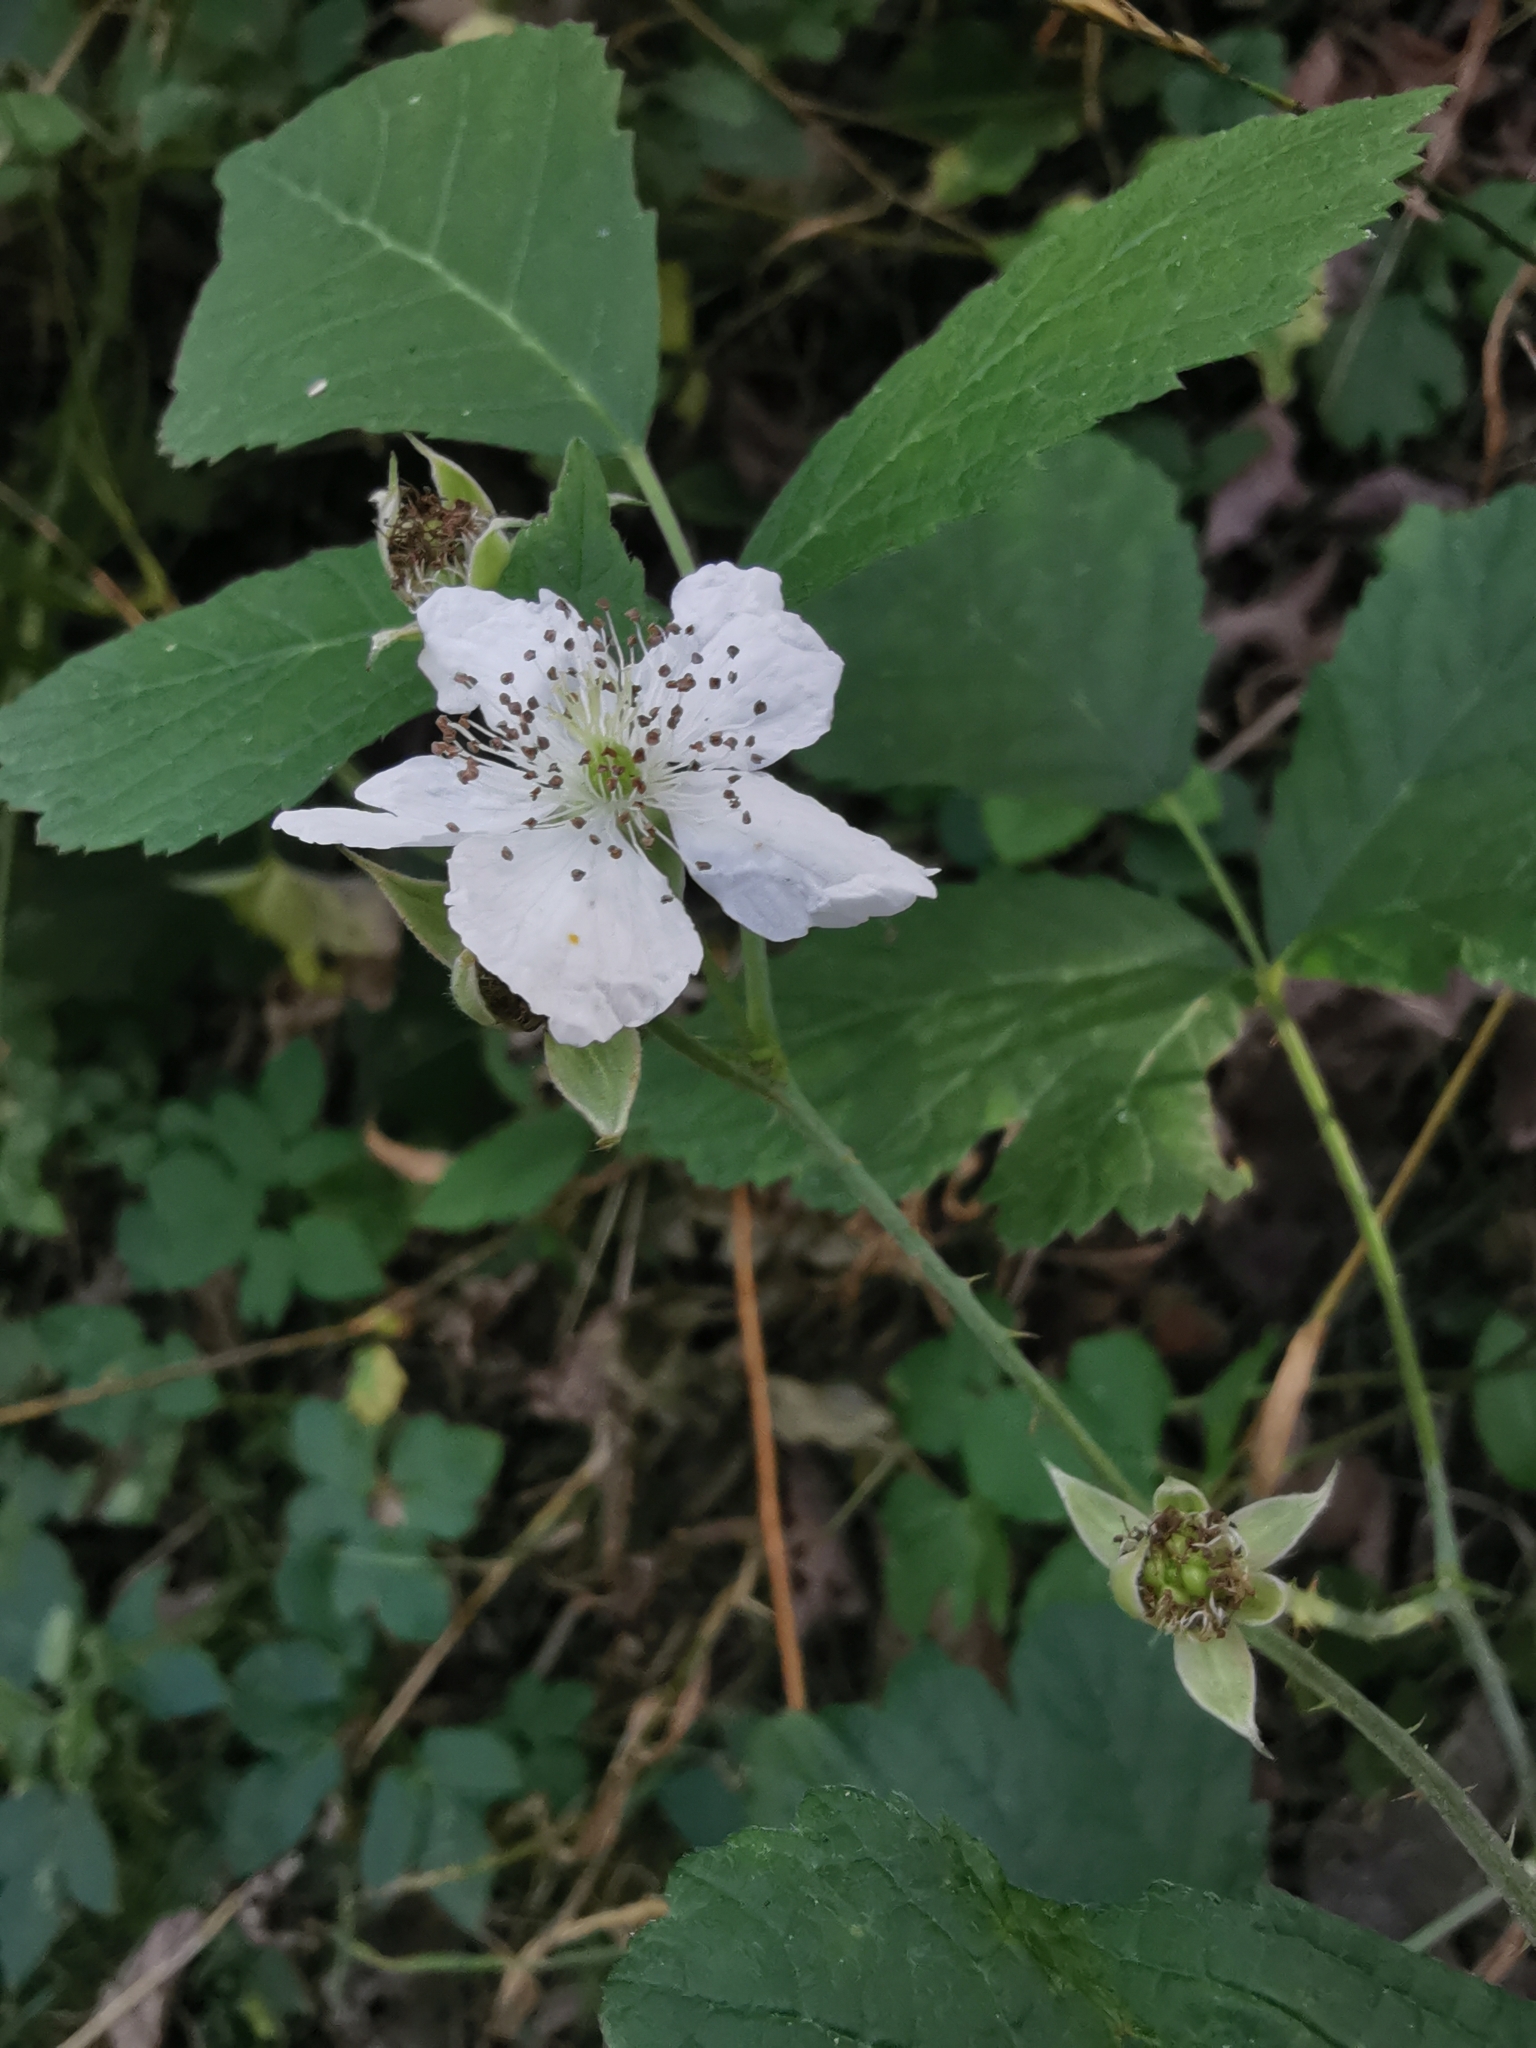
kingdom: Plantae
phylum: Tracheophyta
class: Magnoliopsida
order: Rosales
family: Rosaceae
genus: Rubus
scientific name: Rubus caesius
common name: Dewberry
